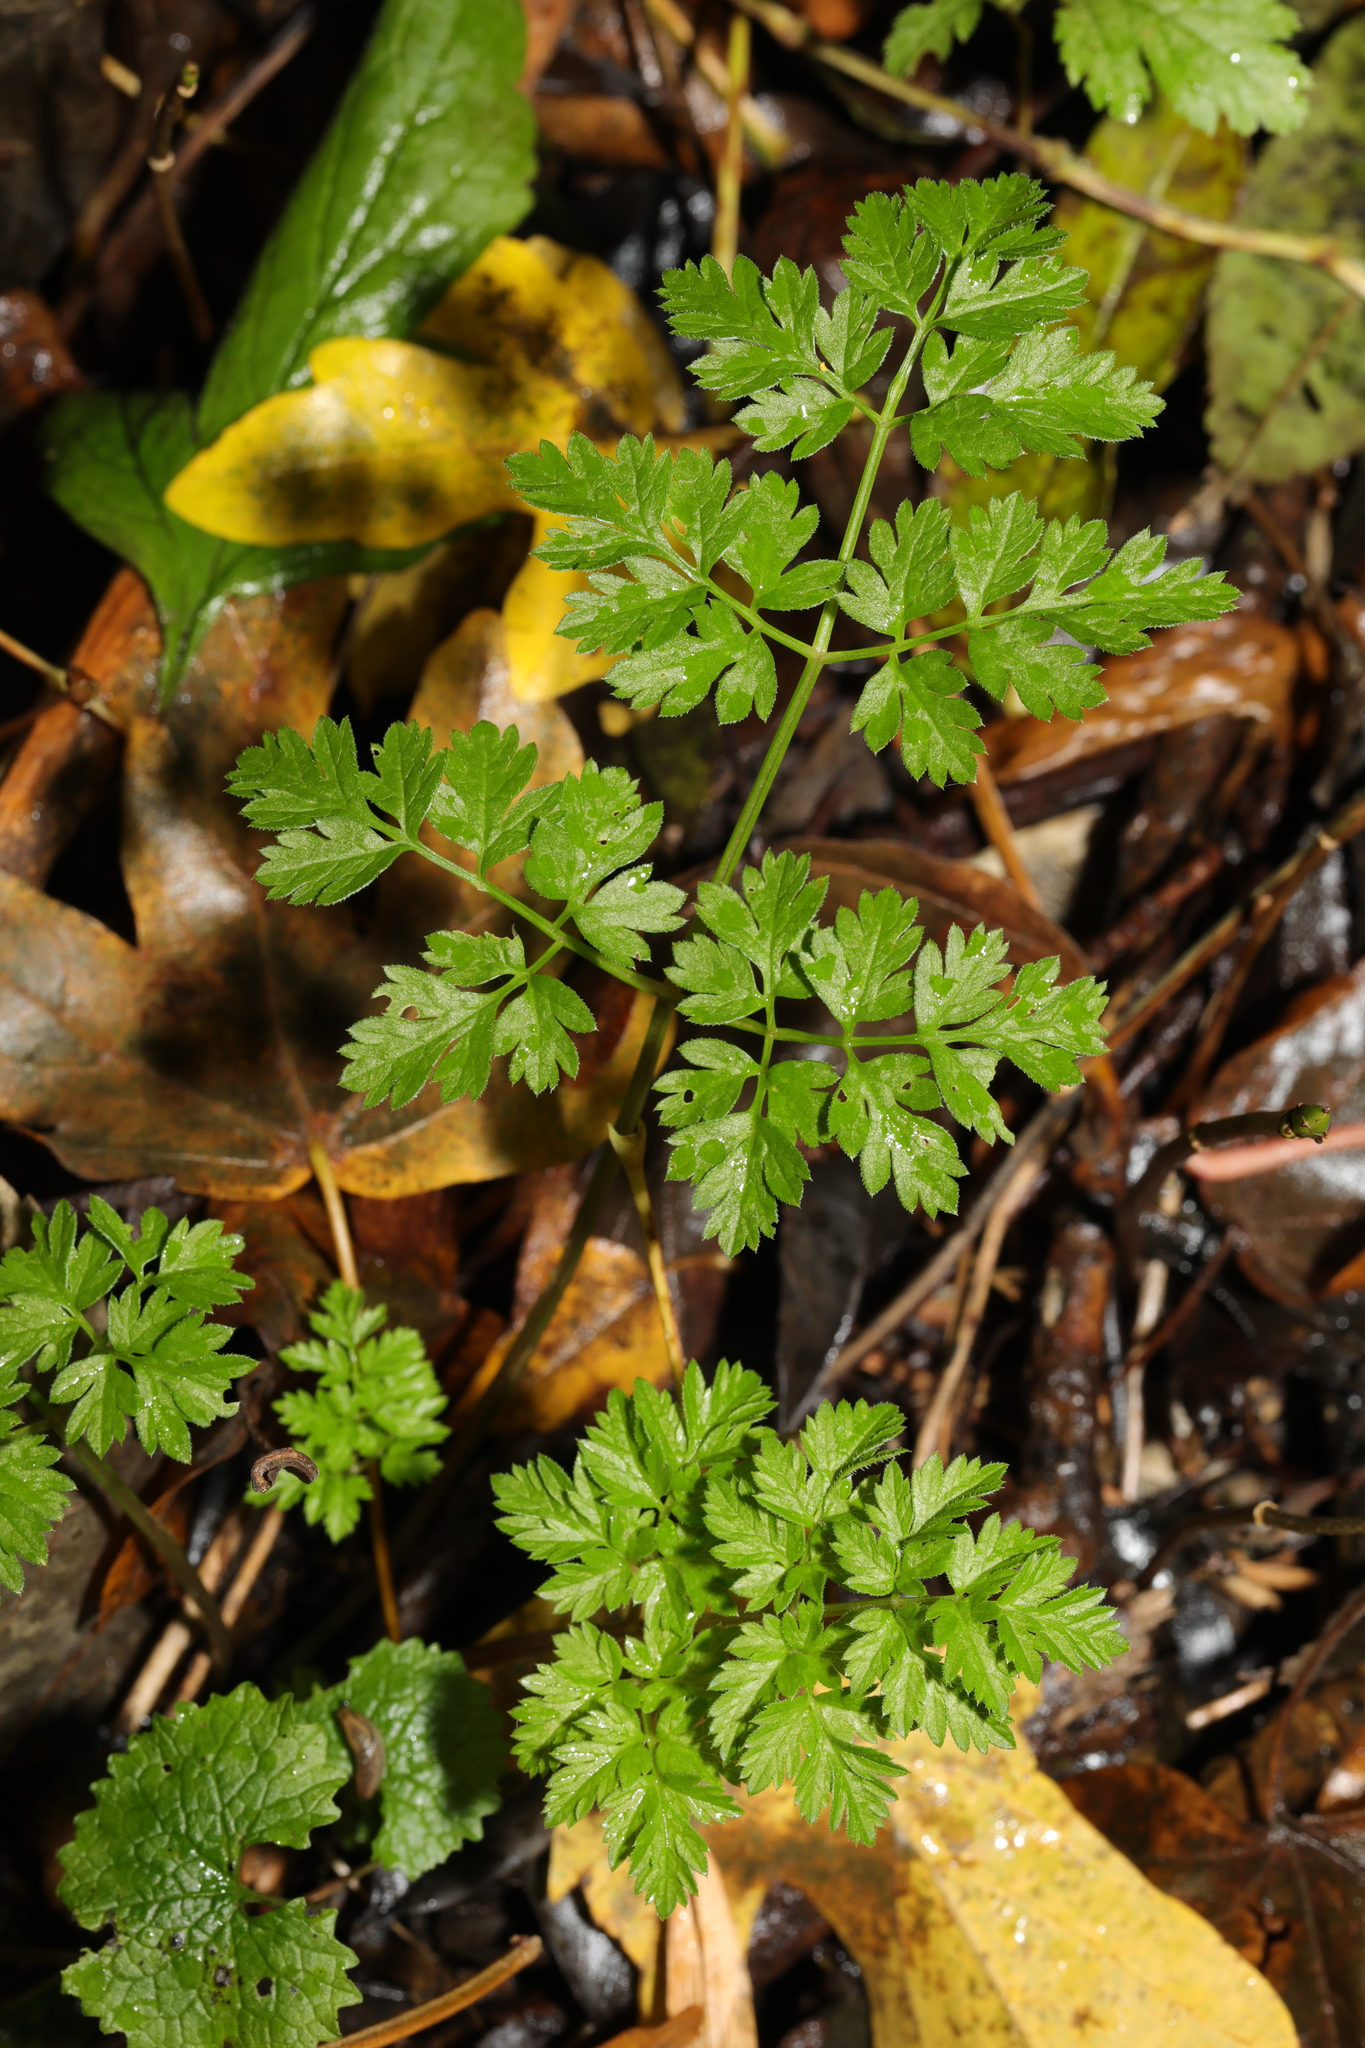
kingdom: Plantae
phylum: Tracheophyta
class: Magnoliopsida
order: Apiales
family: Apiaceae
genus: Anthriscus
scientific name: Anthriscus sylvestris
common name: Cow parsley
